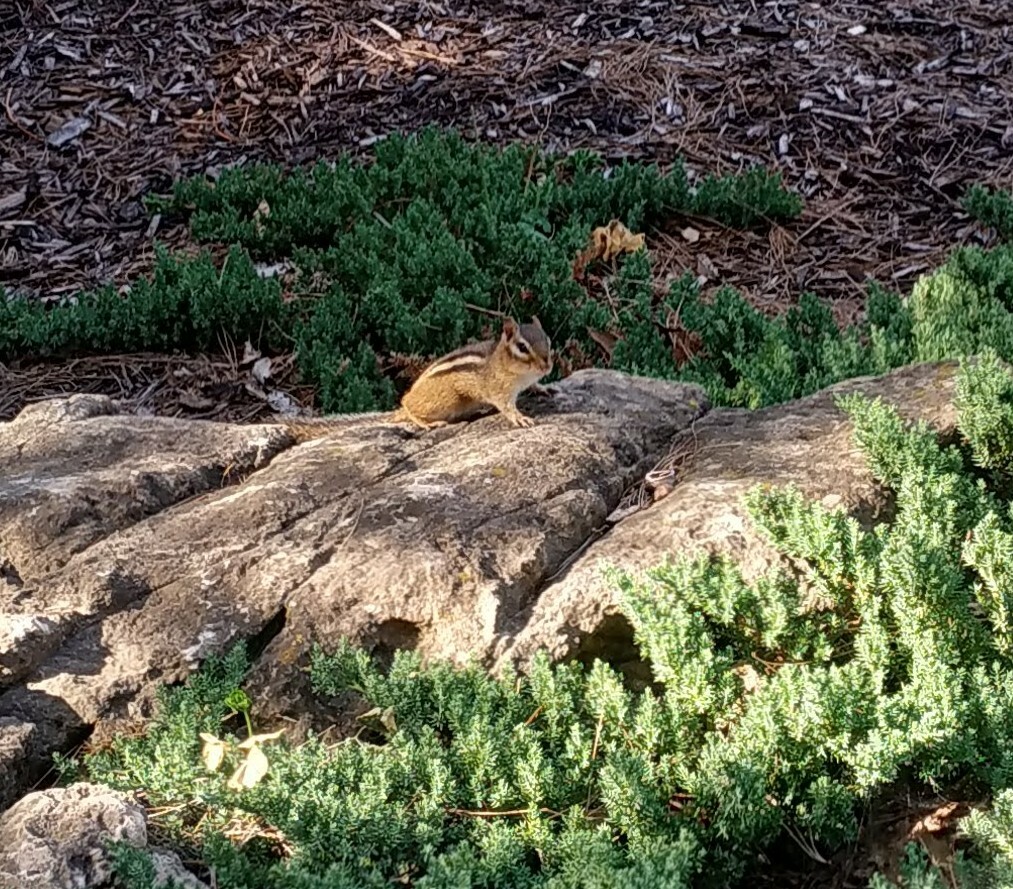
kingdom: Animalia
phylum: Chordata
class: Mammalia
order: Rodentia
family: Sciuridae
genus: Tamias
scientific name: Tamias striatus
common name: Eastern chipmunk
